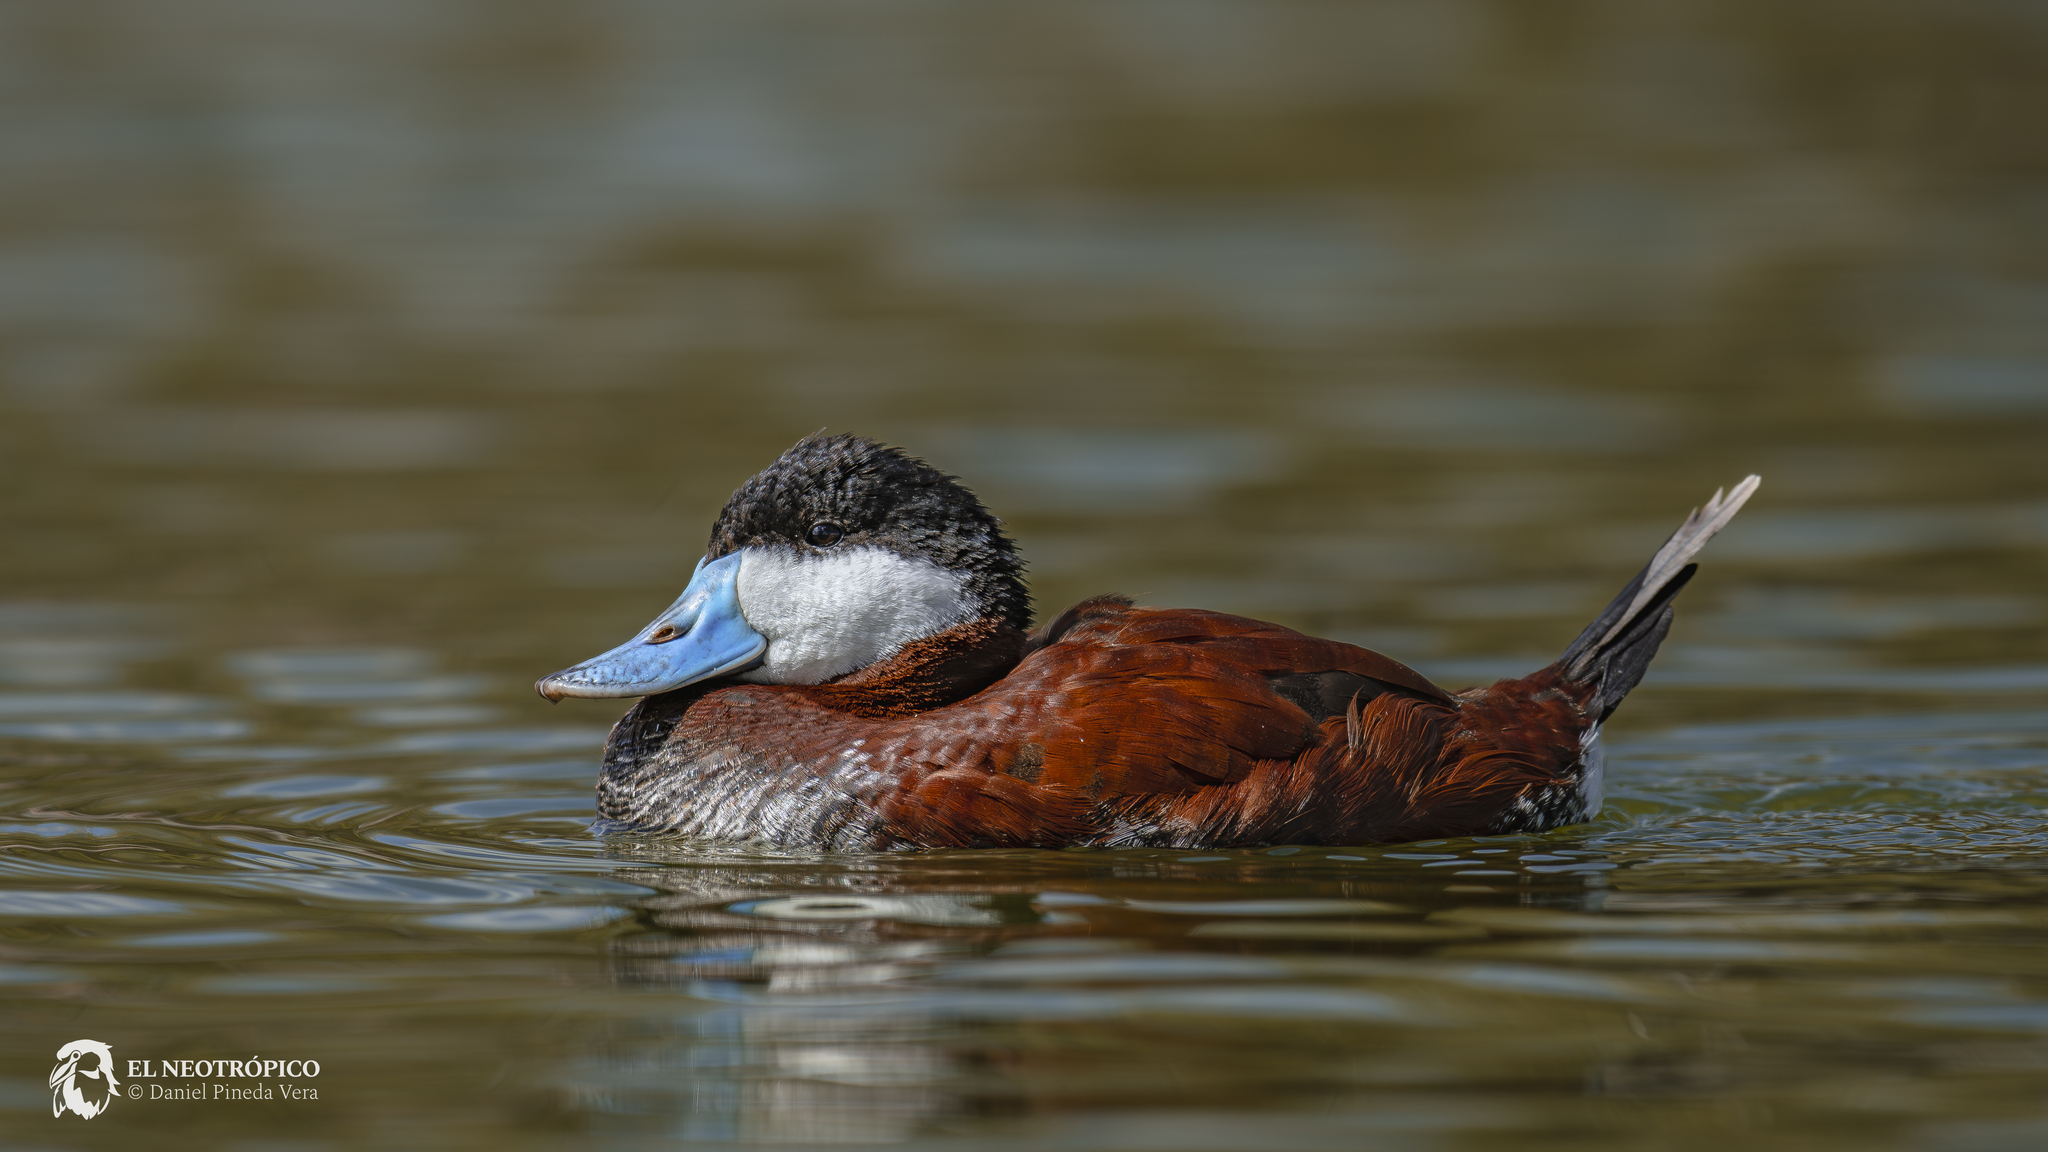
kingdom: Animalia
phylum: Chordata
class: Aves
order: Anseriformes
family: Anatidae
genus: Oxyura
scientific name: Oxyura jamaicensis
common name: Ruddy duck
